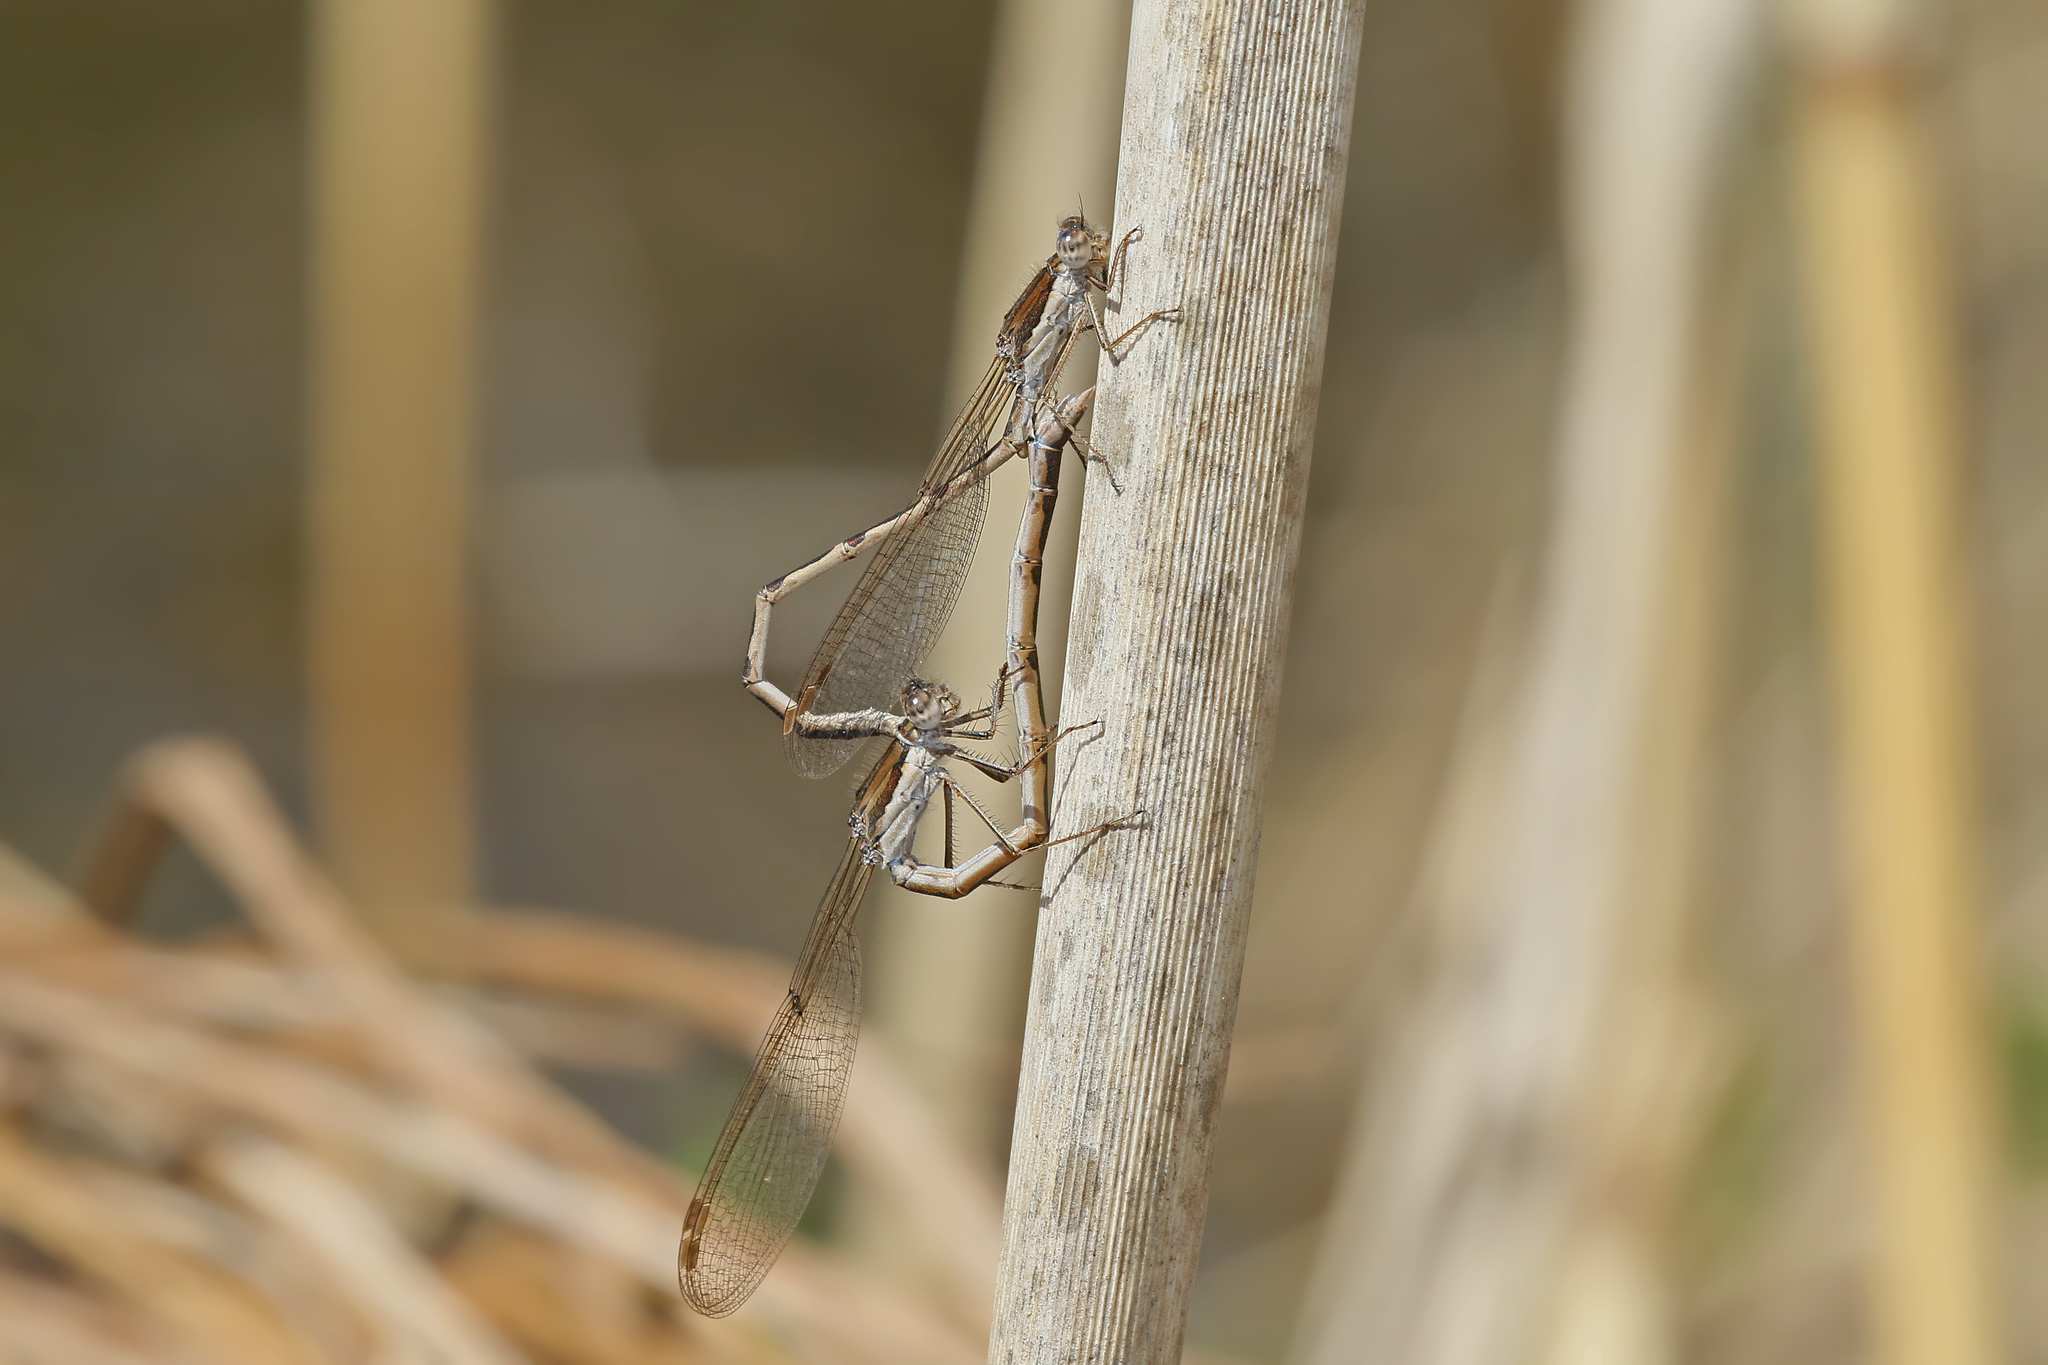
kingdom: Animalia
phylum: Arthropoda
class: Insecta
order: Odonata
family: Lestidae
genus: Sympecma
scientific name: Sympecma fusca
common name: Common winter damsel
